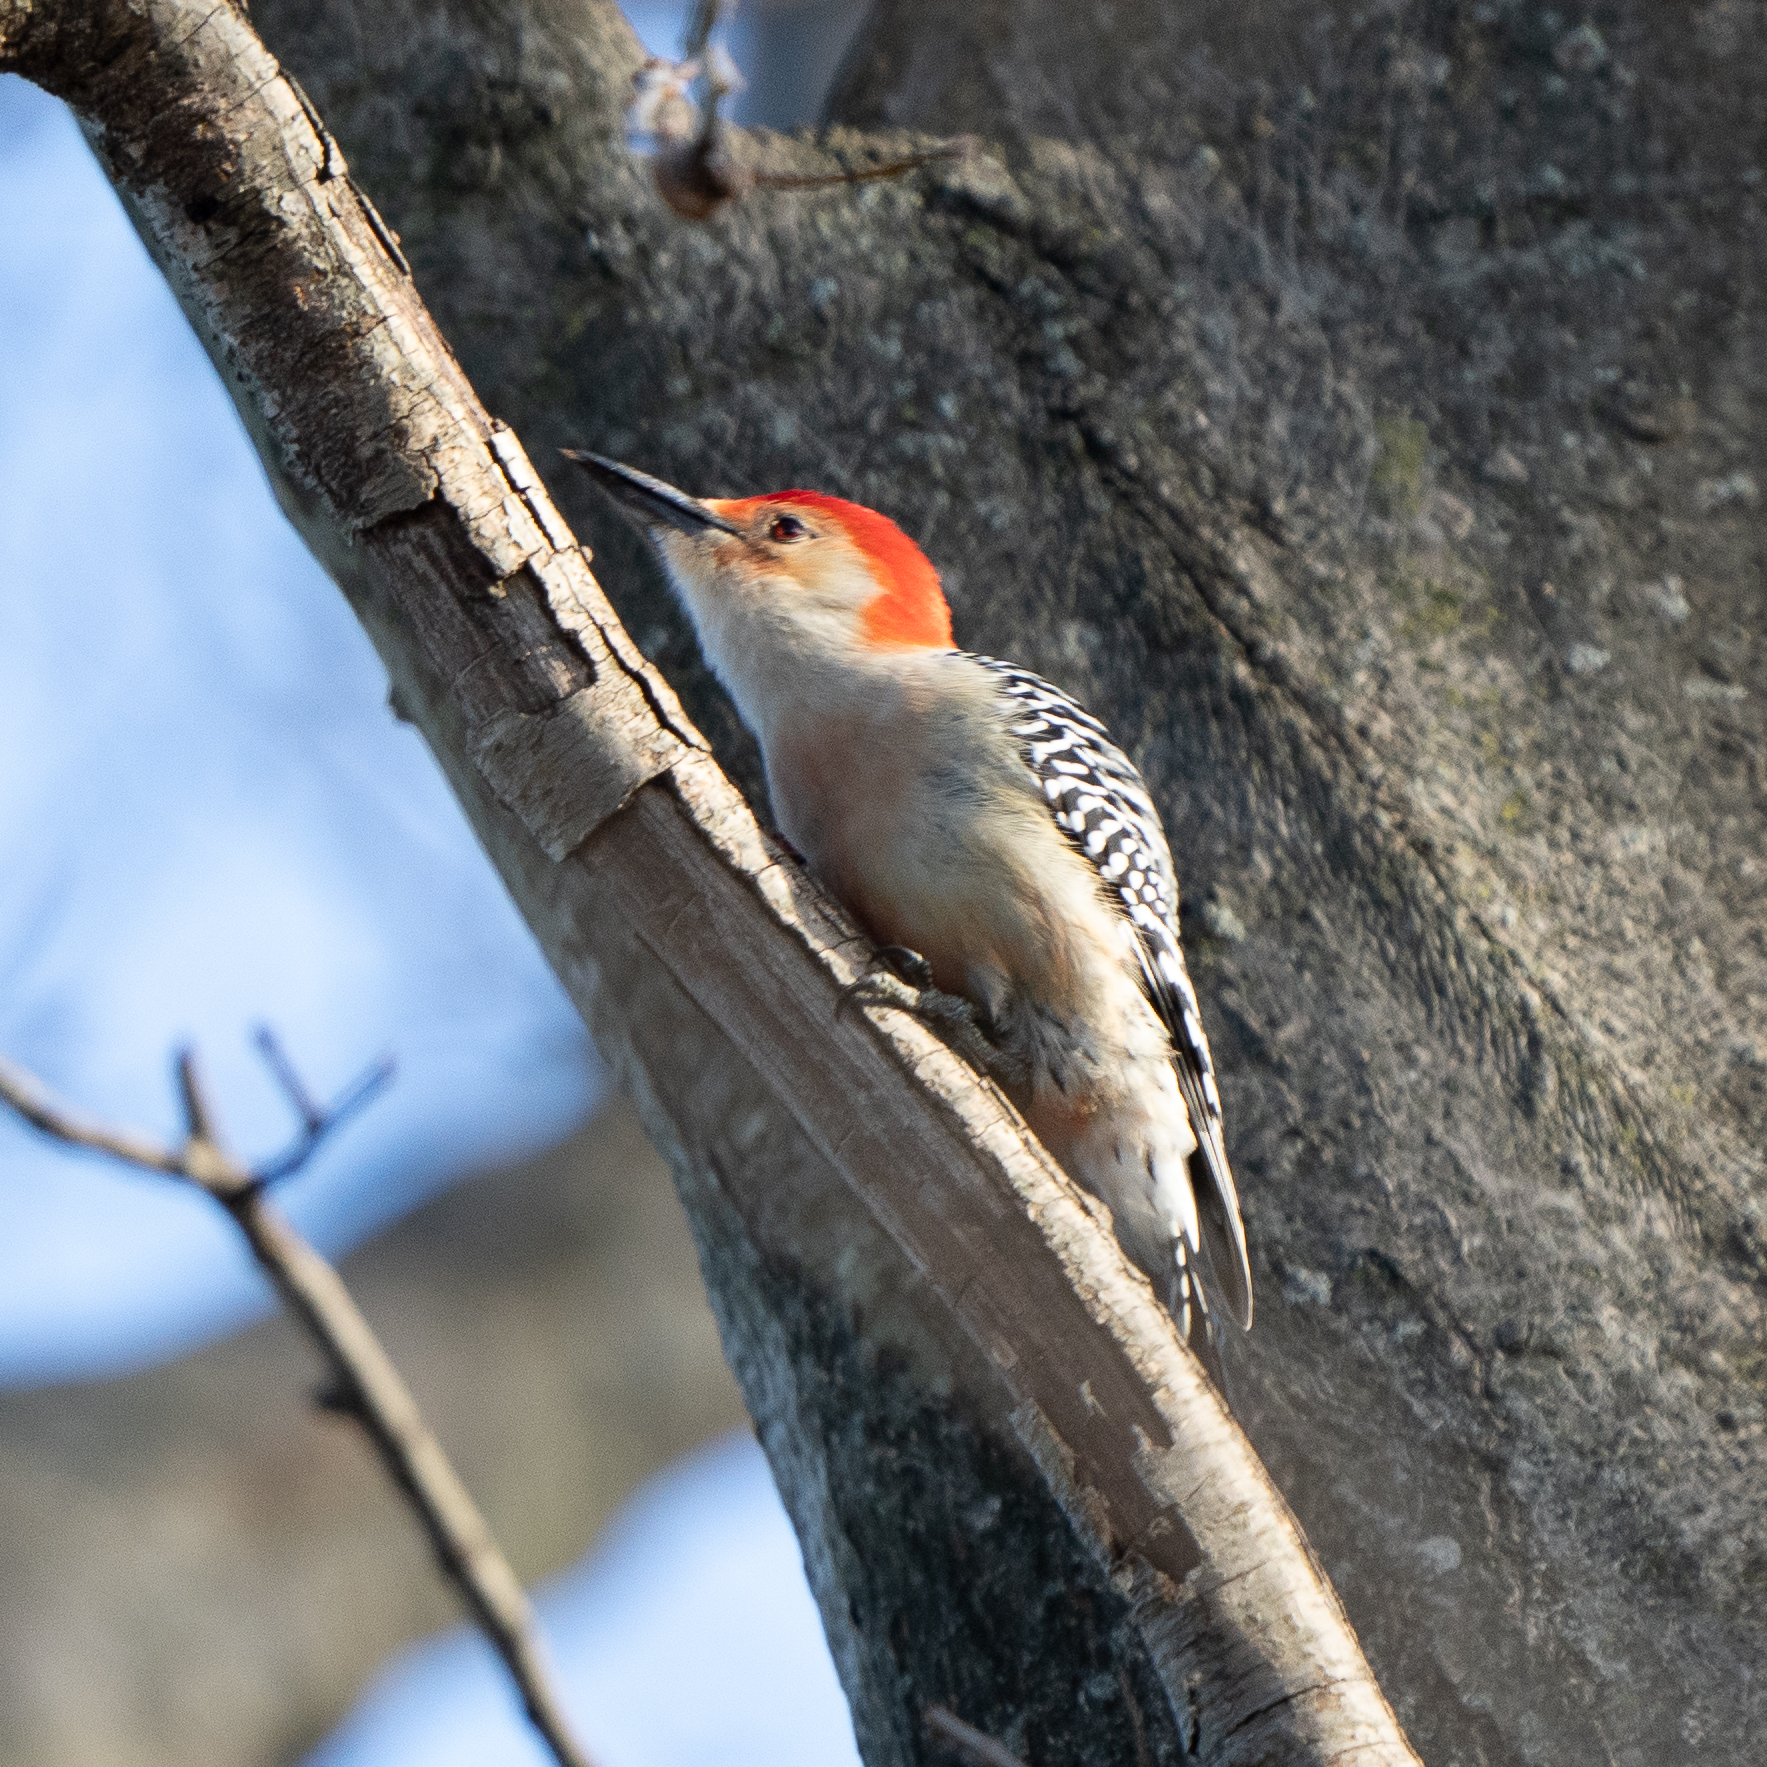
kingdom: Animalia
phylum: Chordata
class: Aves
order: Piciformes
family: Picidae
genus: Melanerpes
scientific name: Melanerpes carolinus
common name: Red-bellied woodpecker
